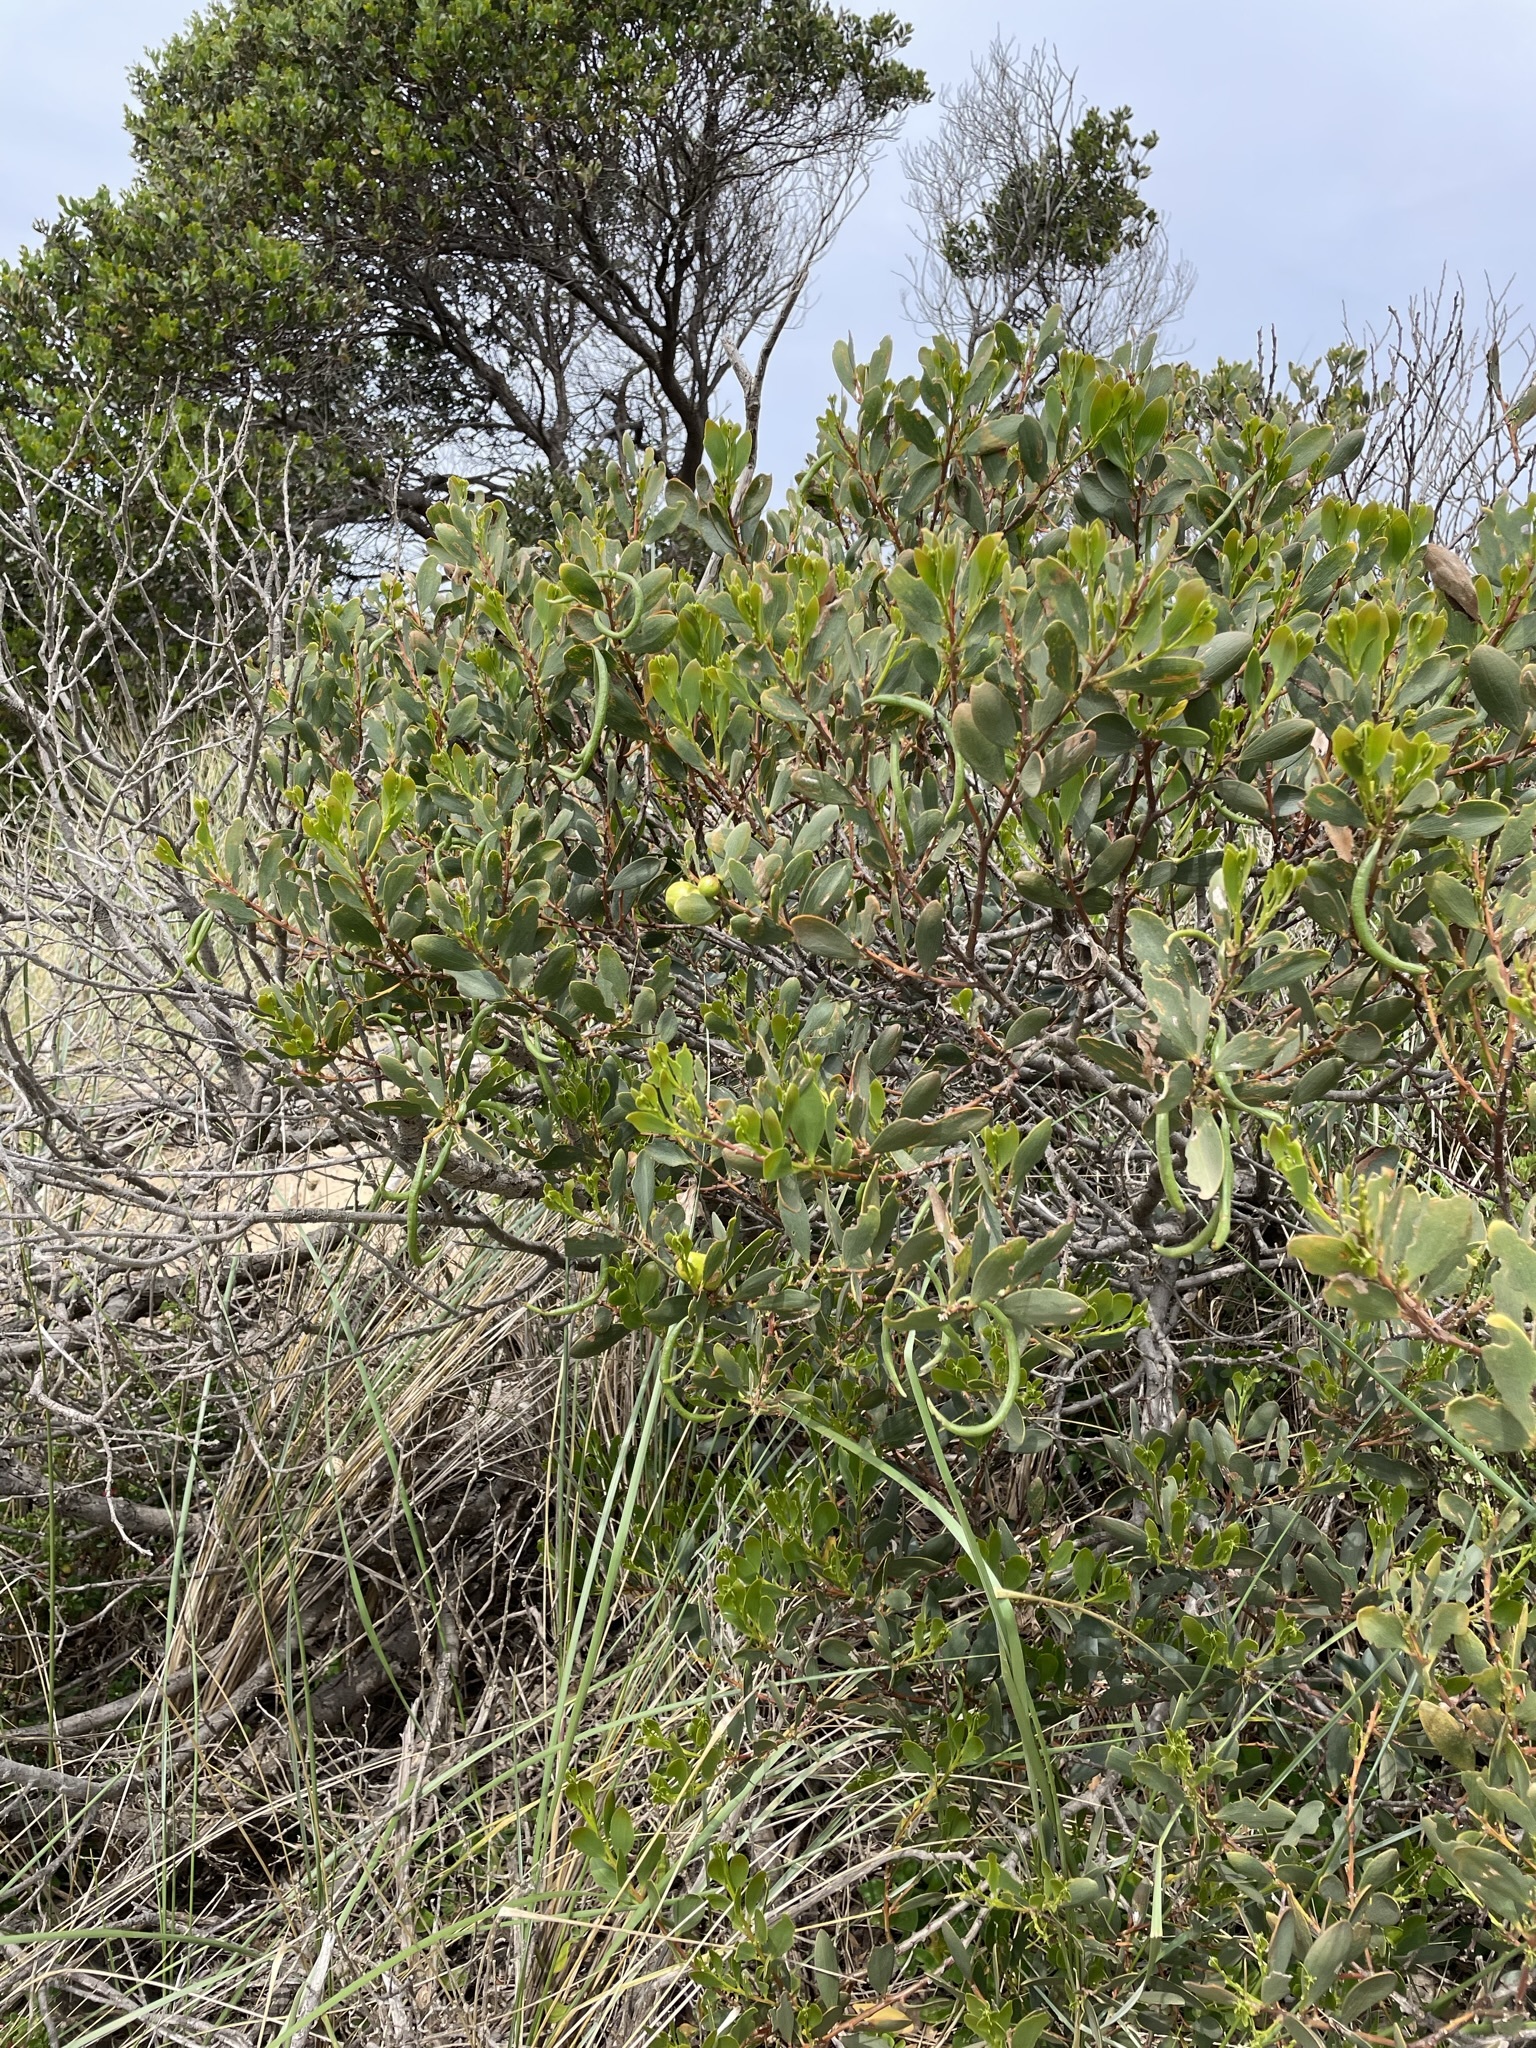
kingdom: Plantae
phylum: Tracheophyta
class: Magnoliopsida
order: Fabales
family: Fabaceae
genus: Acacia
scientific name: Acacia longifolia
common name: Sydney golden wattle
